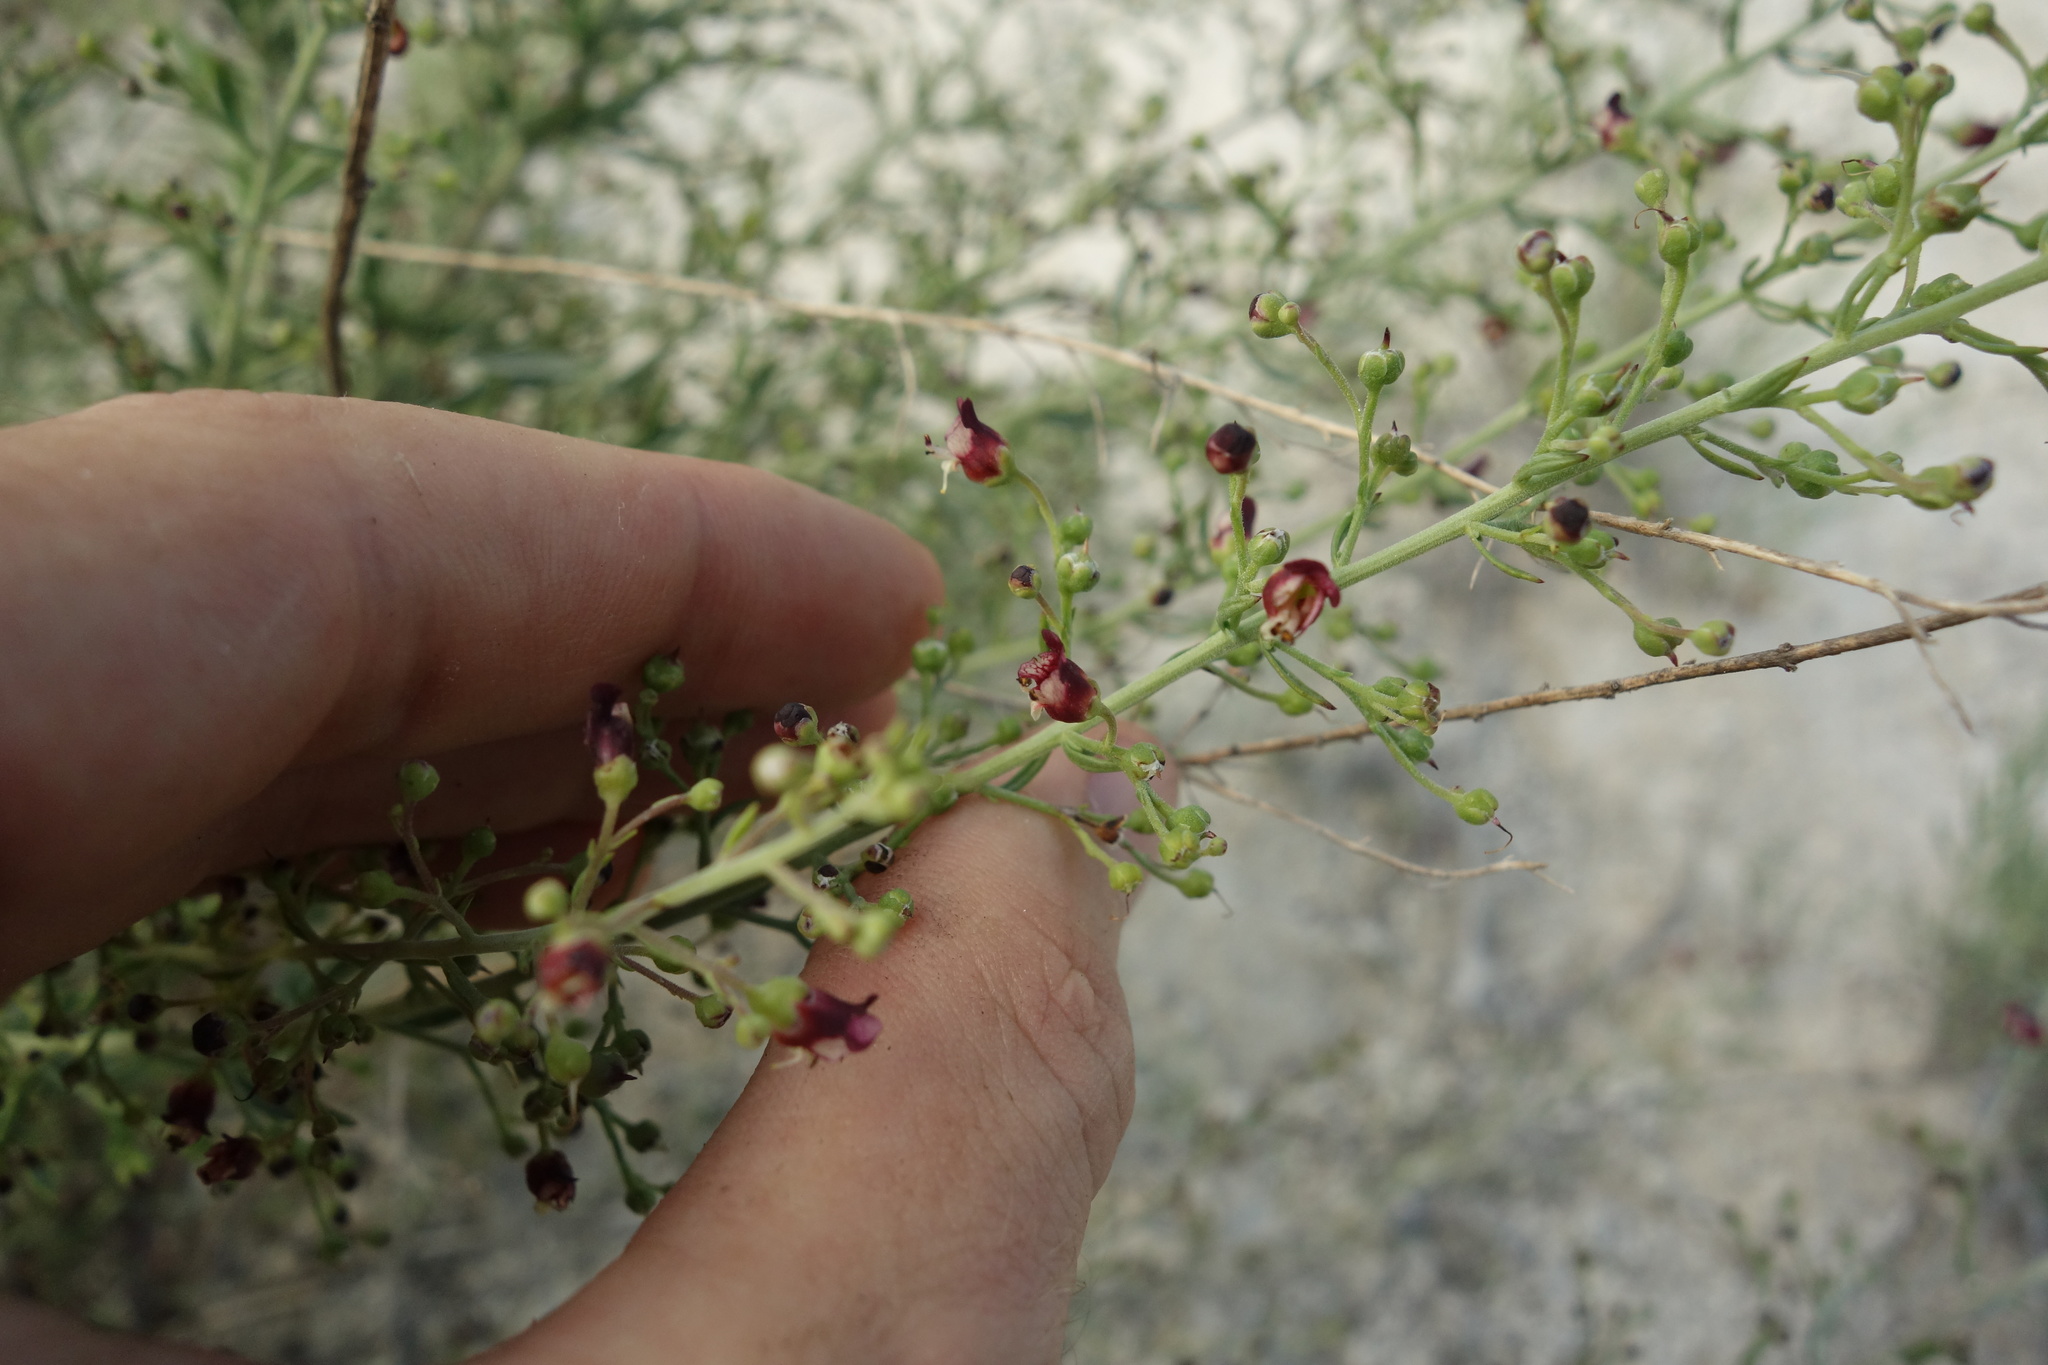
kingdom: Plantae
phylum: Tracheophyta
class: Magnoliopsida
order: Lamiales
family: Scrophulariaceae
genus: Scrophularia
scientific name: Scrophularia cretacea
